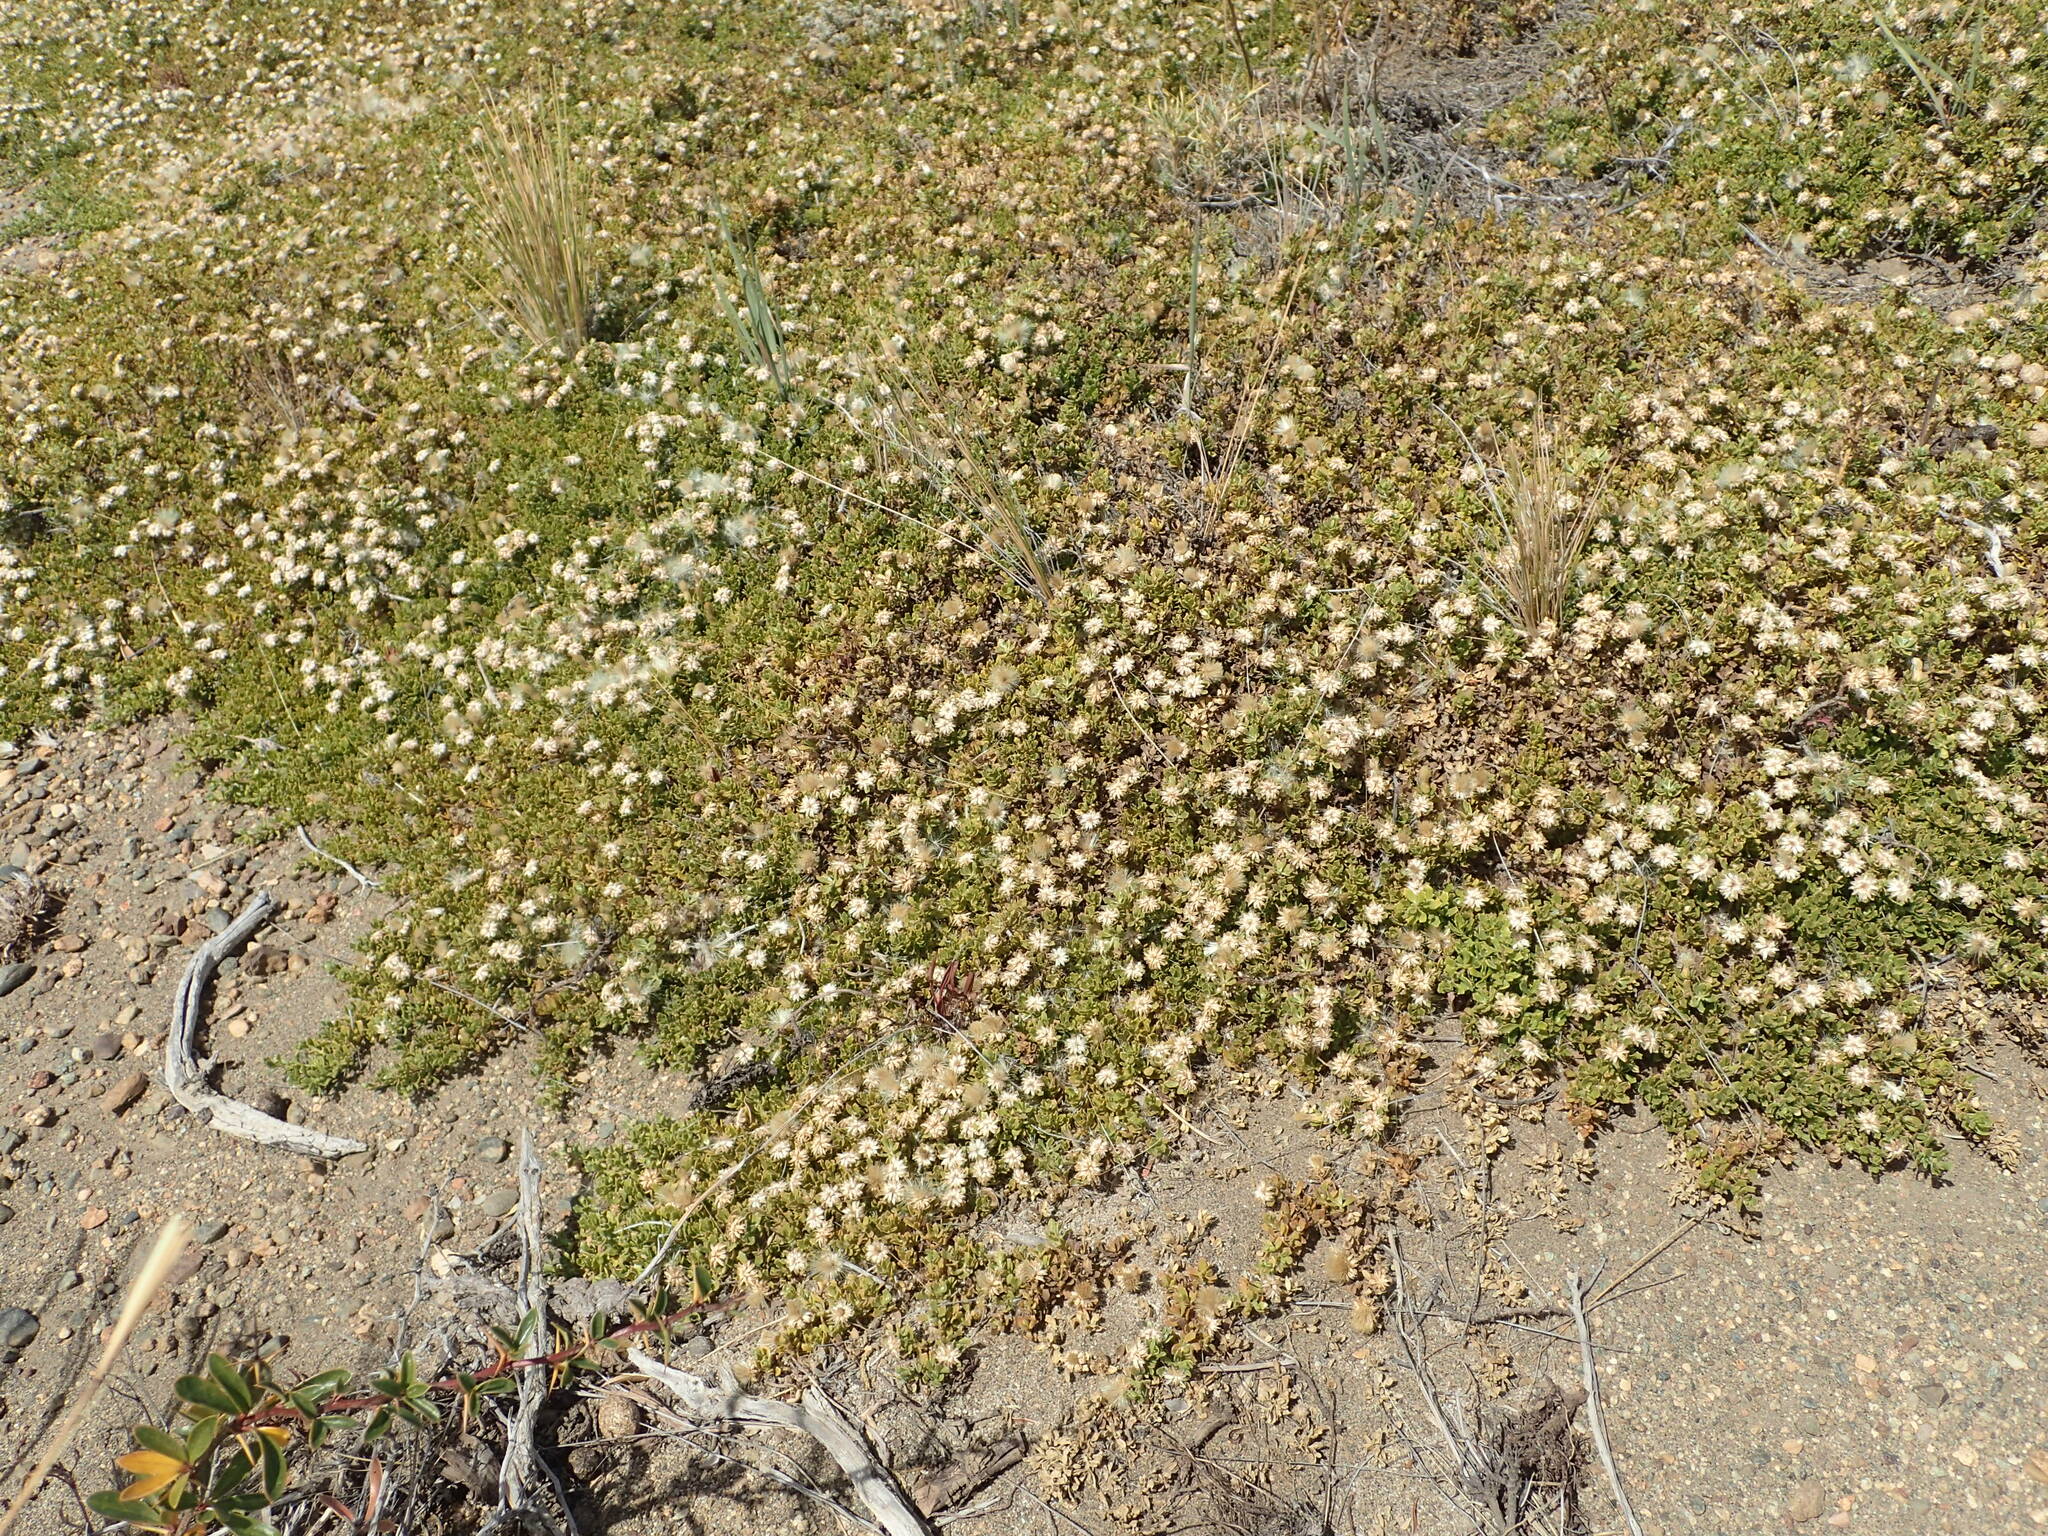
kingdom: Plantae
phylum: Tracheophyta
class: Magnoliopsida
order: Asterales
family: Asteraceae
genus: Baccharis
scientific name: Baccharis magellanica
